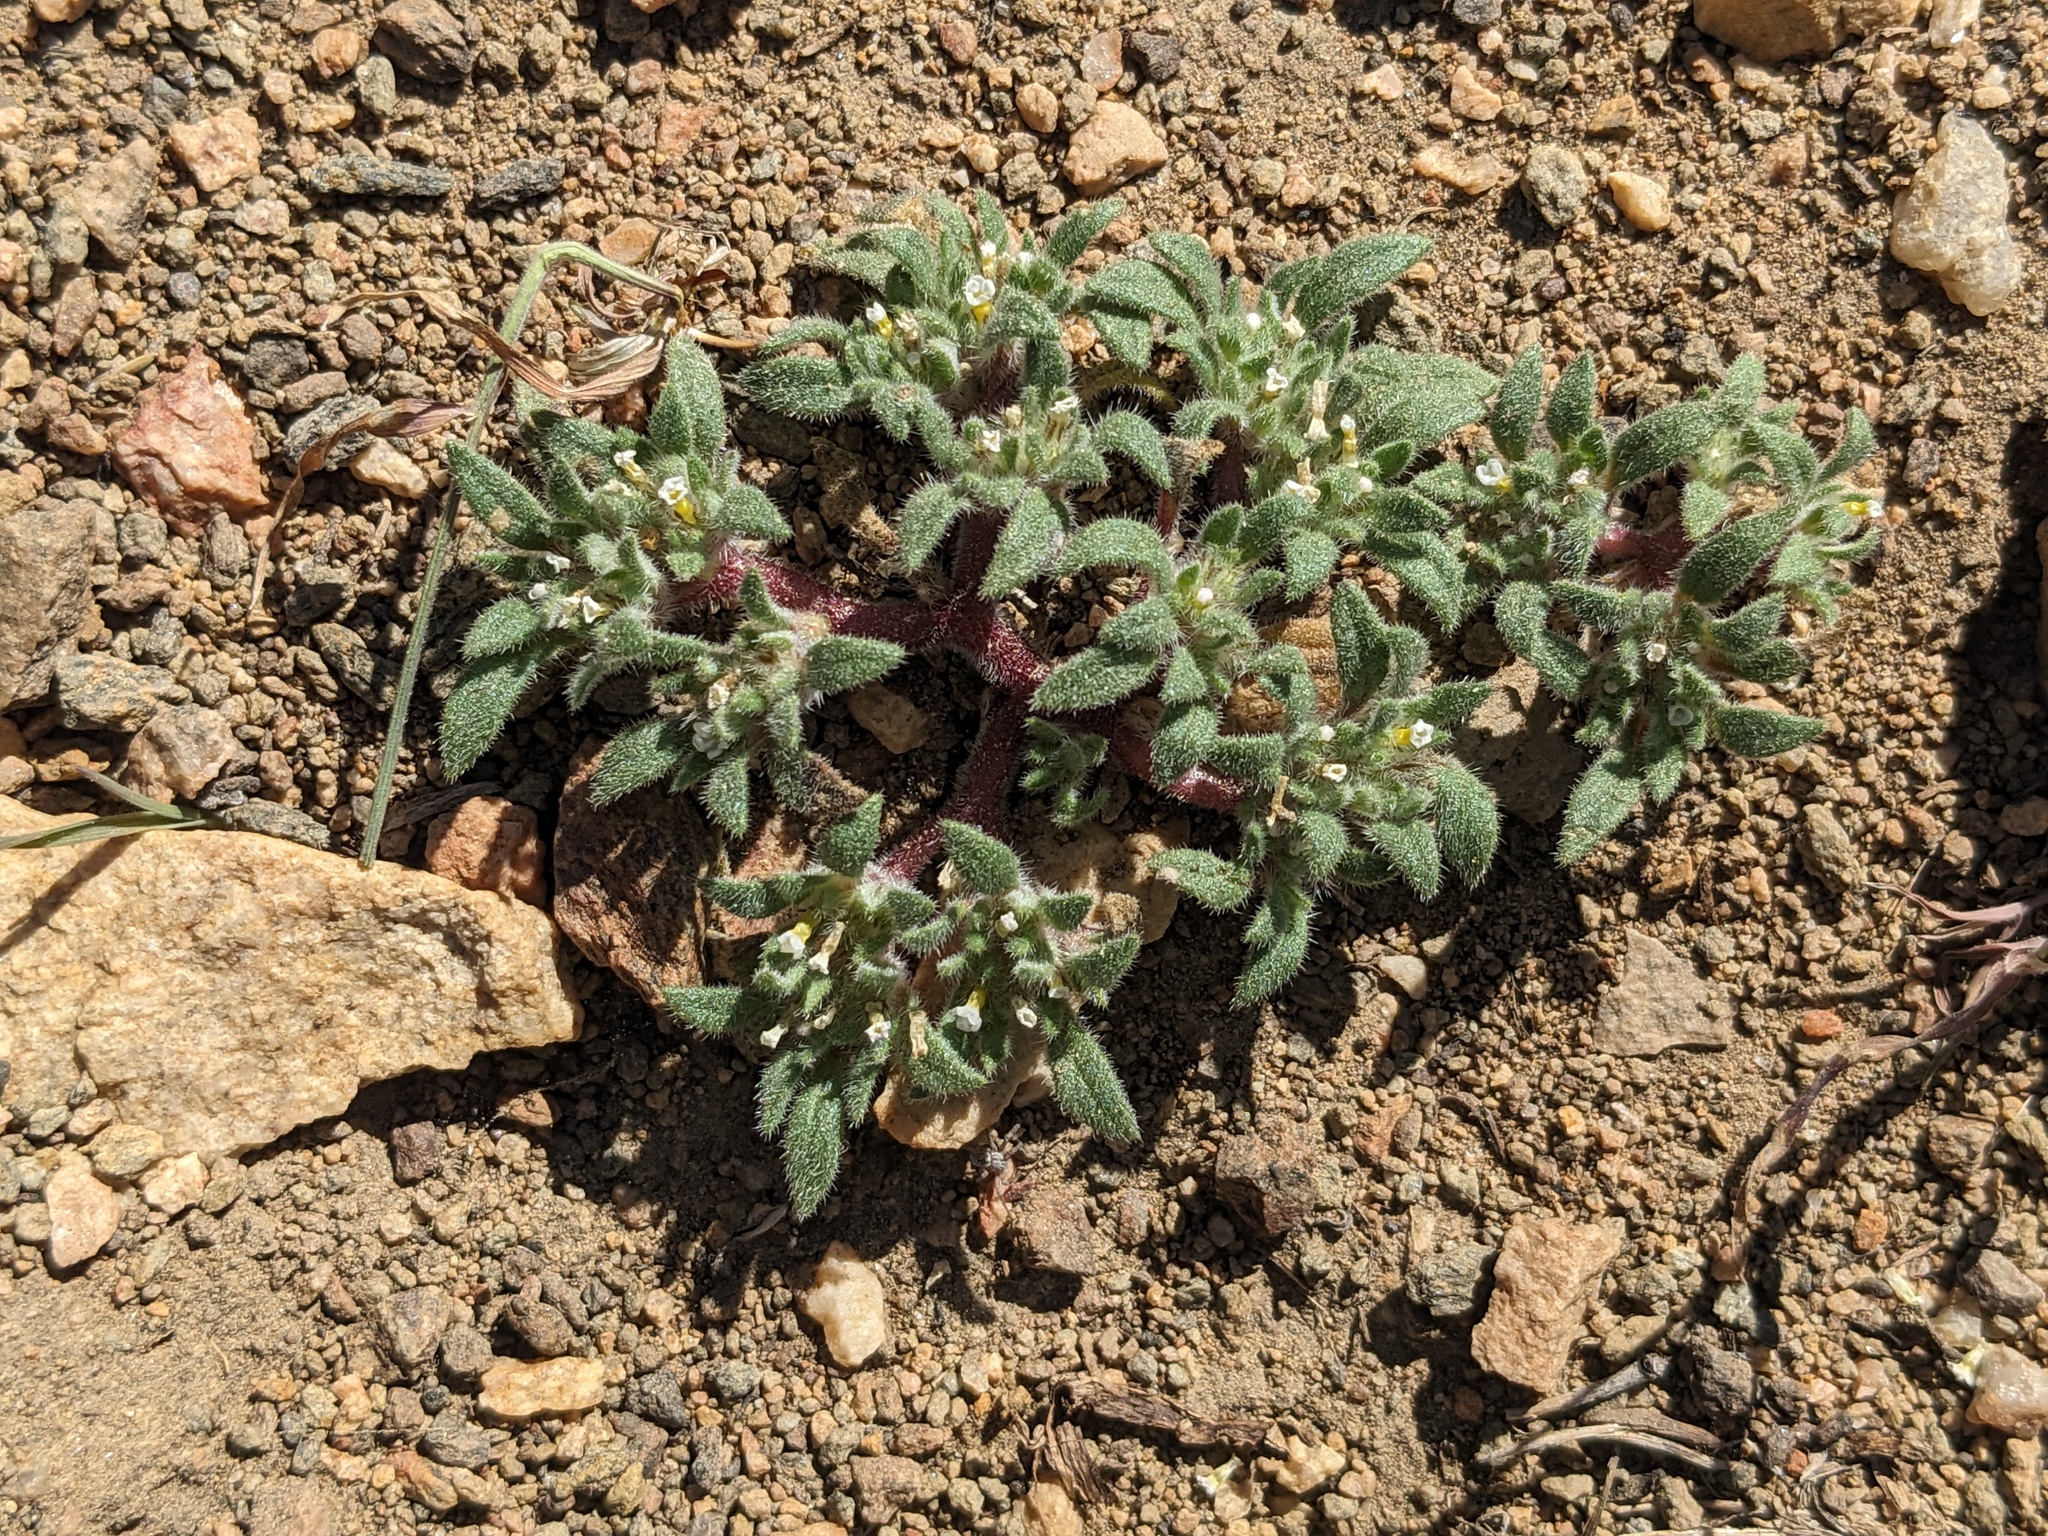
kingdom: Plantae
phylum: Tracheophyta
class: Magnoliopsida
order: Boraginales
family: Namaceae
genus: Nama
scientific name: Nama densa
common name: Leafy nama
